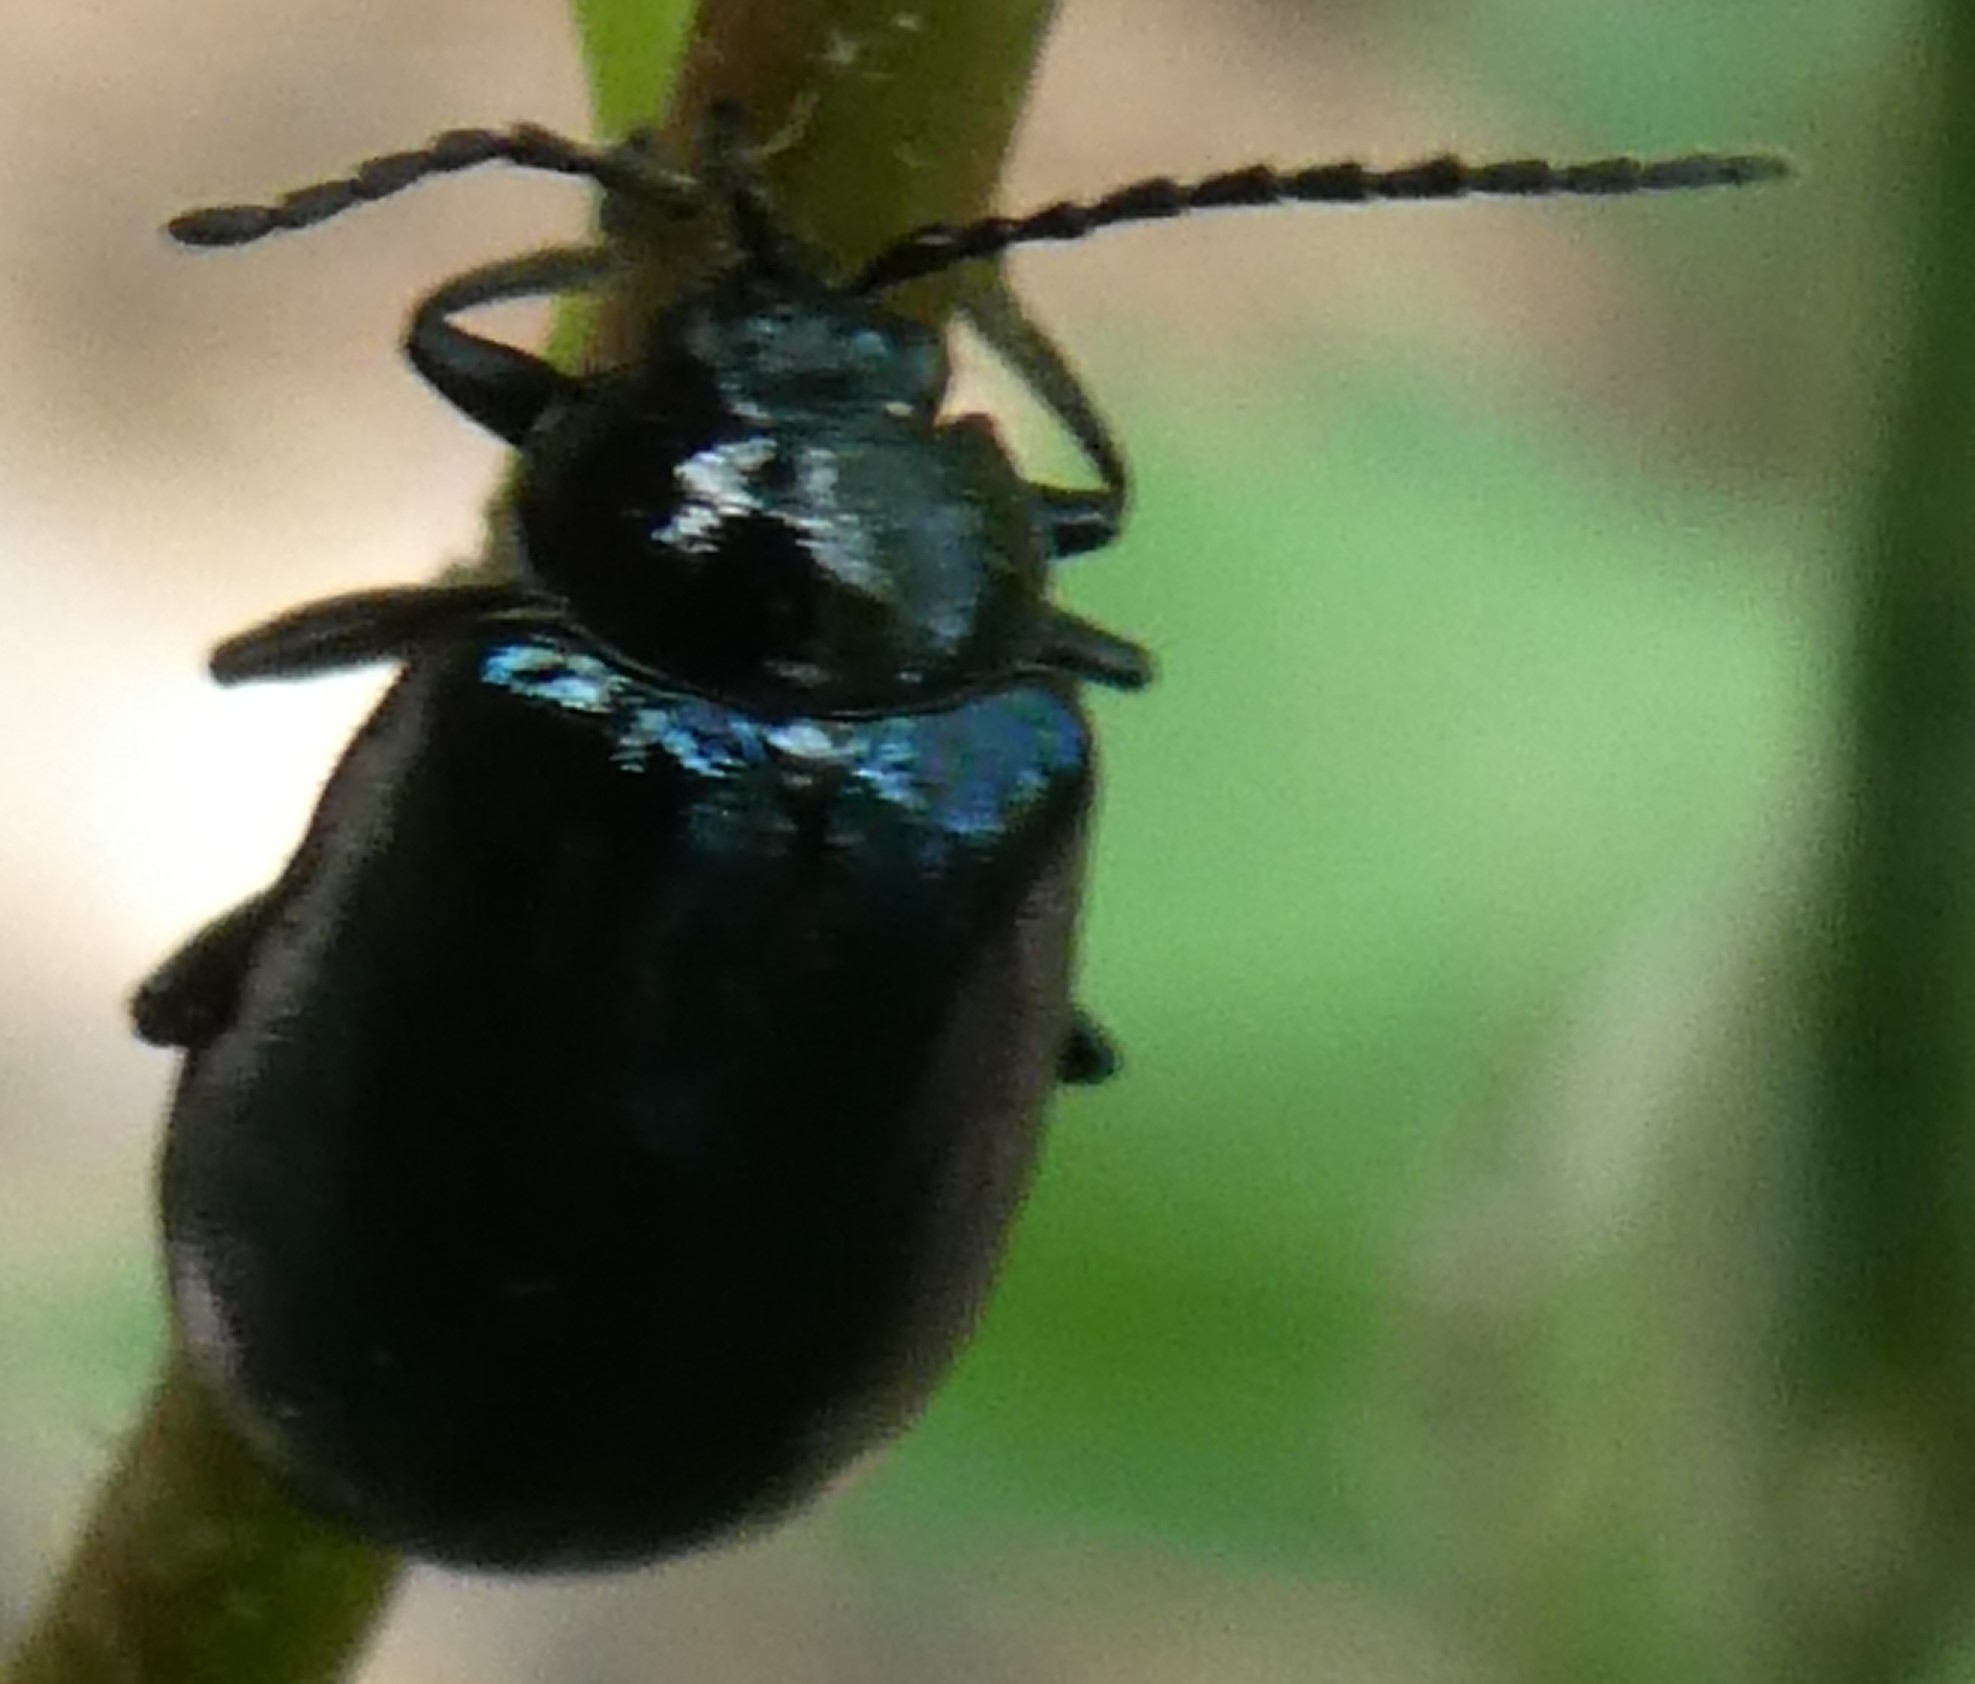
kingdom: Animalia
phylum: Arthropoda
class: Insecta
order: Coleoptera
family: Chrysomelidae
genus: Agelastica
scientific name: Agelastica alni
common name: Alder leaf beetle
